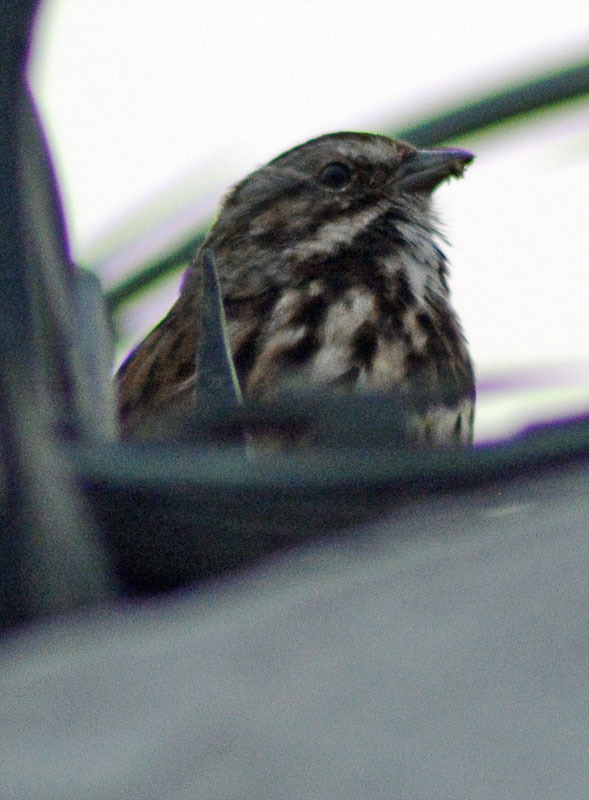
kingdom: Animalia
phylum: Chordata
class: Aves
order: Passeriformes
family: Passerellidae
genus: Melospiza
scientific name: Melospiza melodia
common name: Song sparrow
